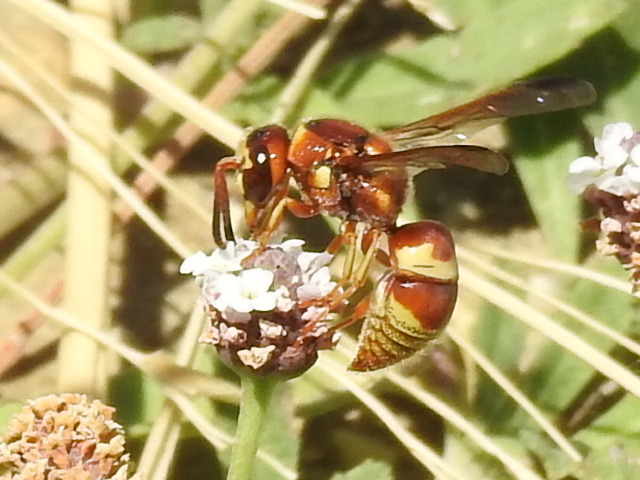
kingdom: Animalia
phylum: Arthropoda
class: Insecta
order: Hymenoptera
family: Eumenidae
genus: Euodynerus
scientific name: Euodynerus pratensis
